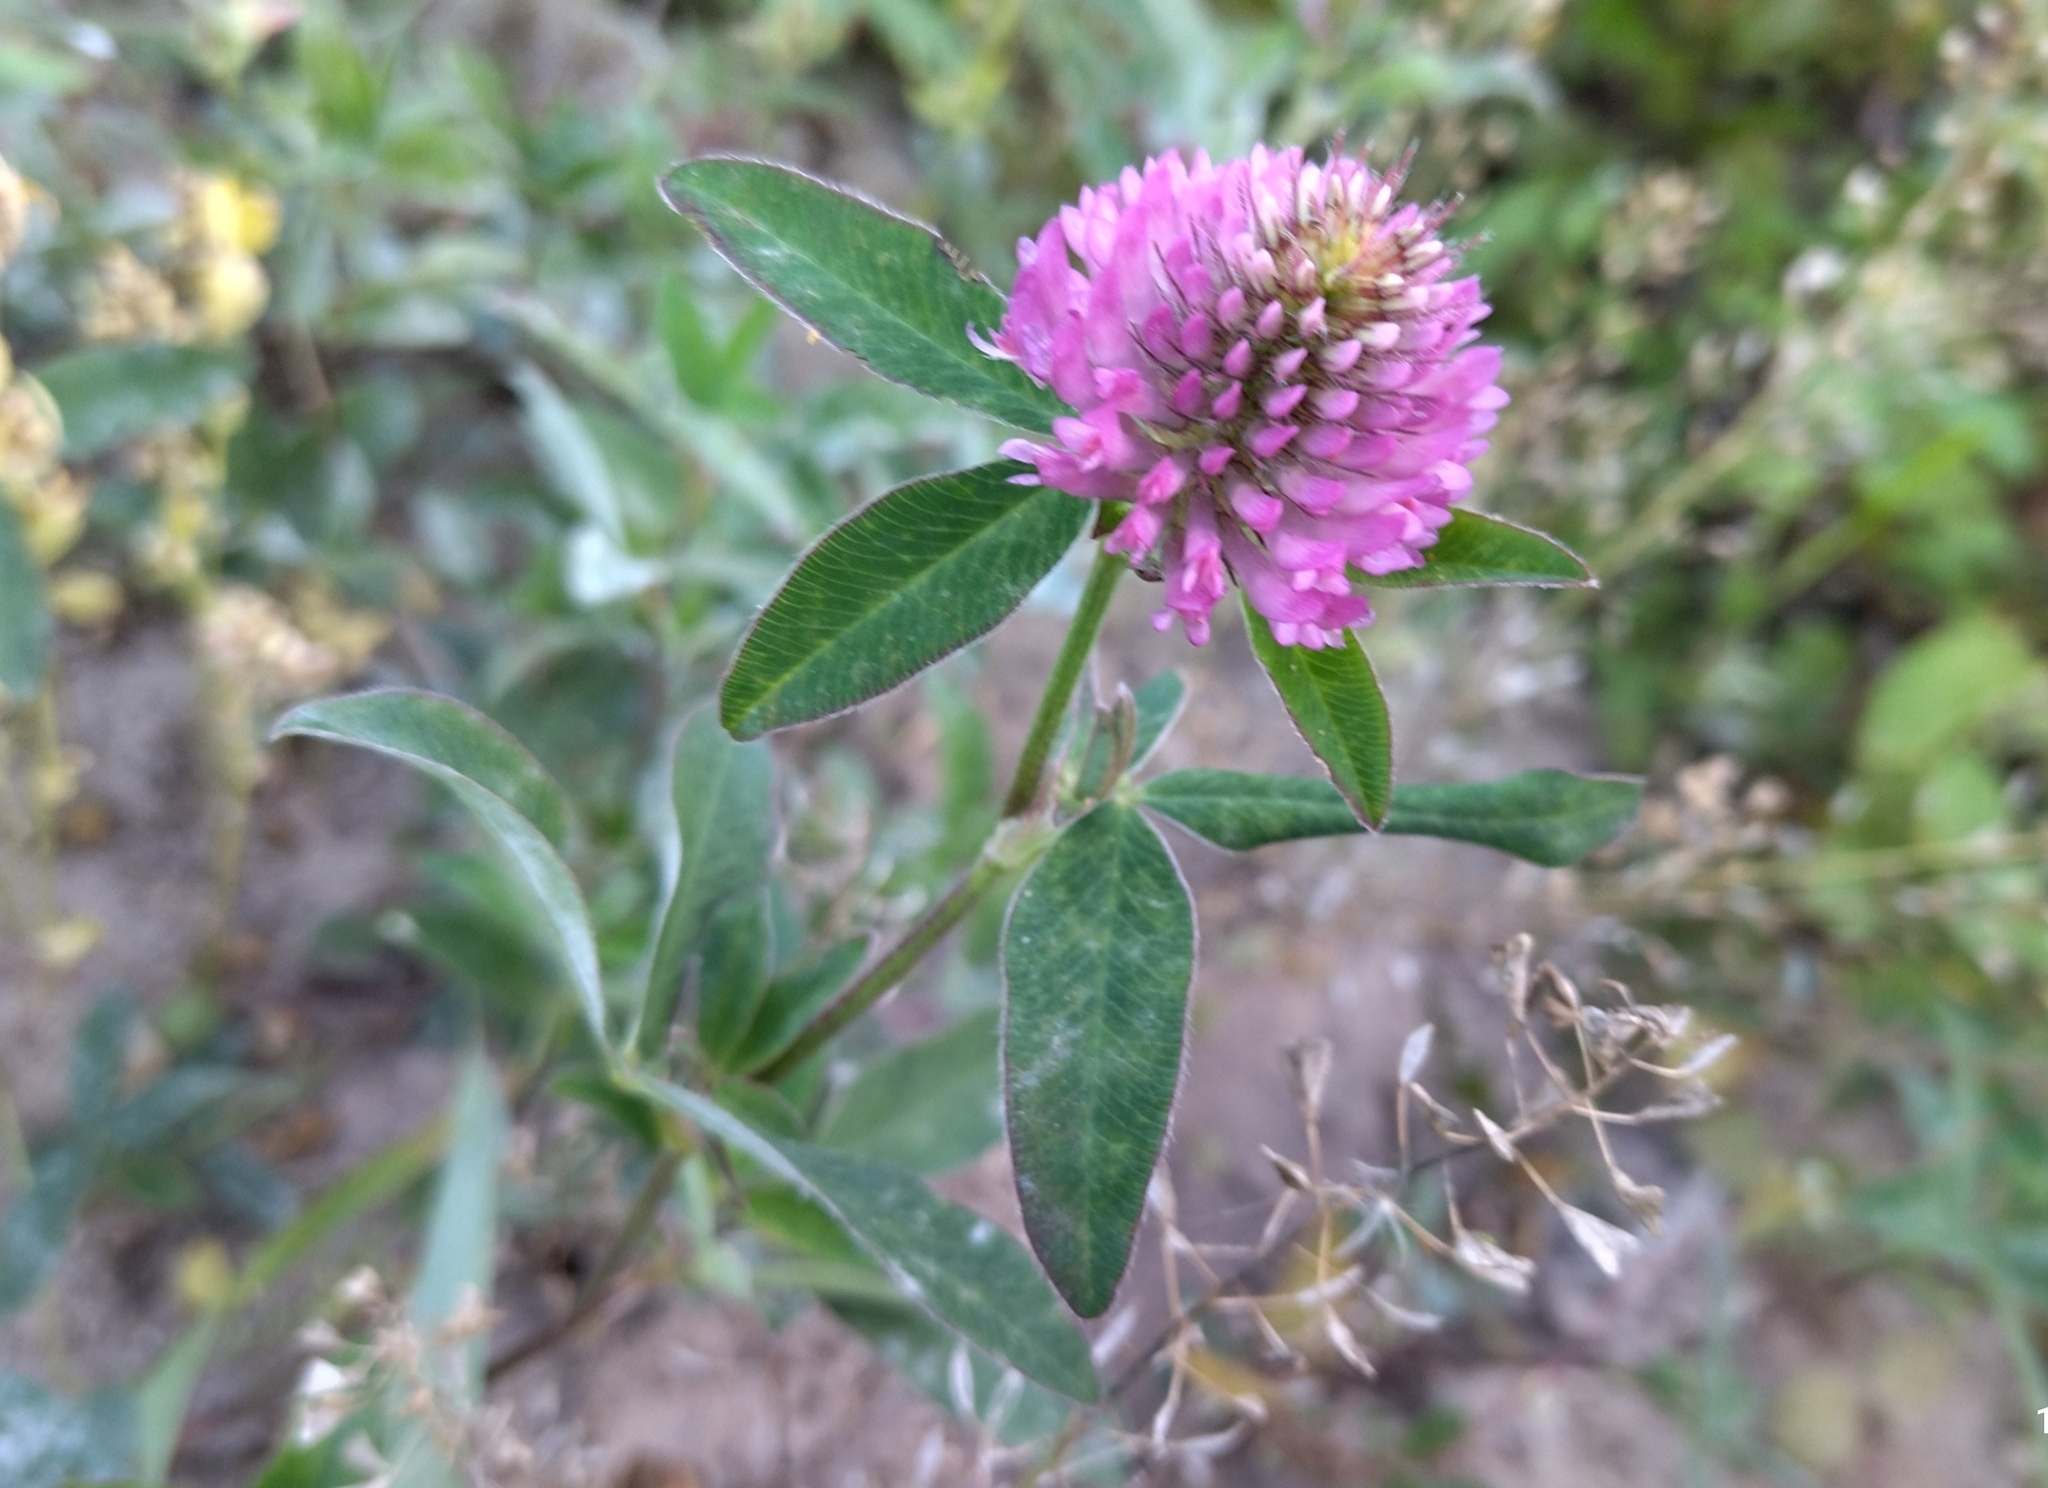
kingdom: Plantae
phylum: Tracheophyta
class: Magnoliopsida
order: Fabales
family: Fabaceae
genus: Trifolium
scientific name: Trifolium medium
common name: Zigzag clover
